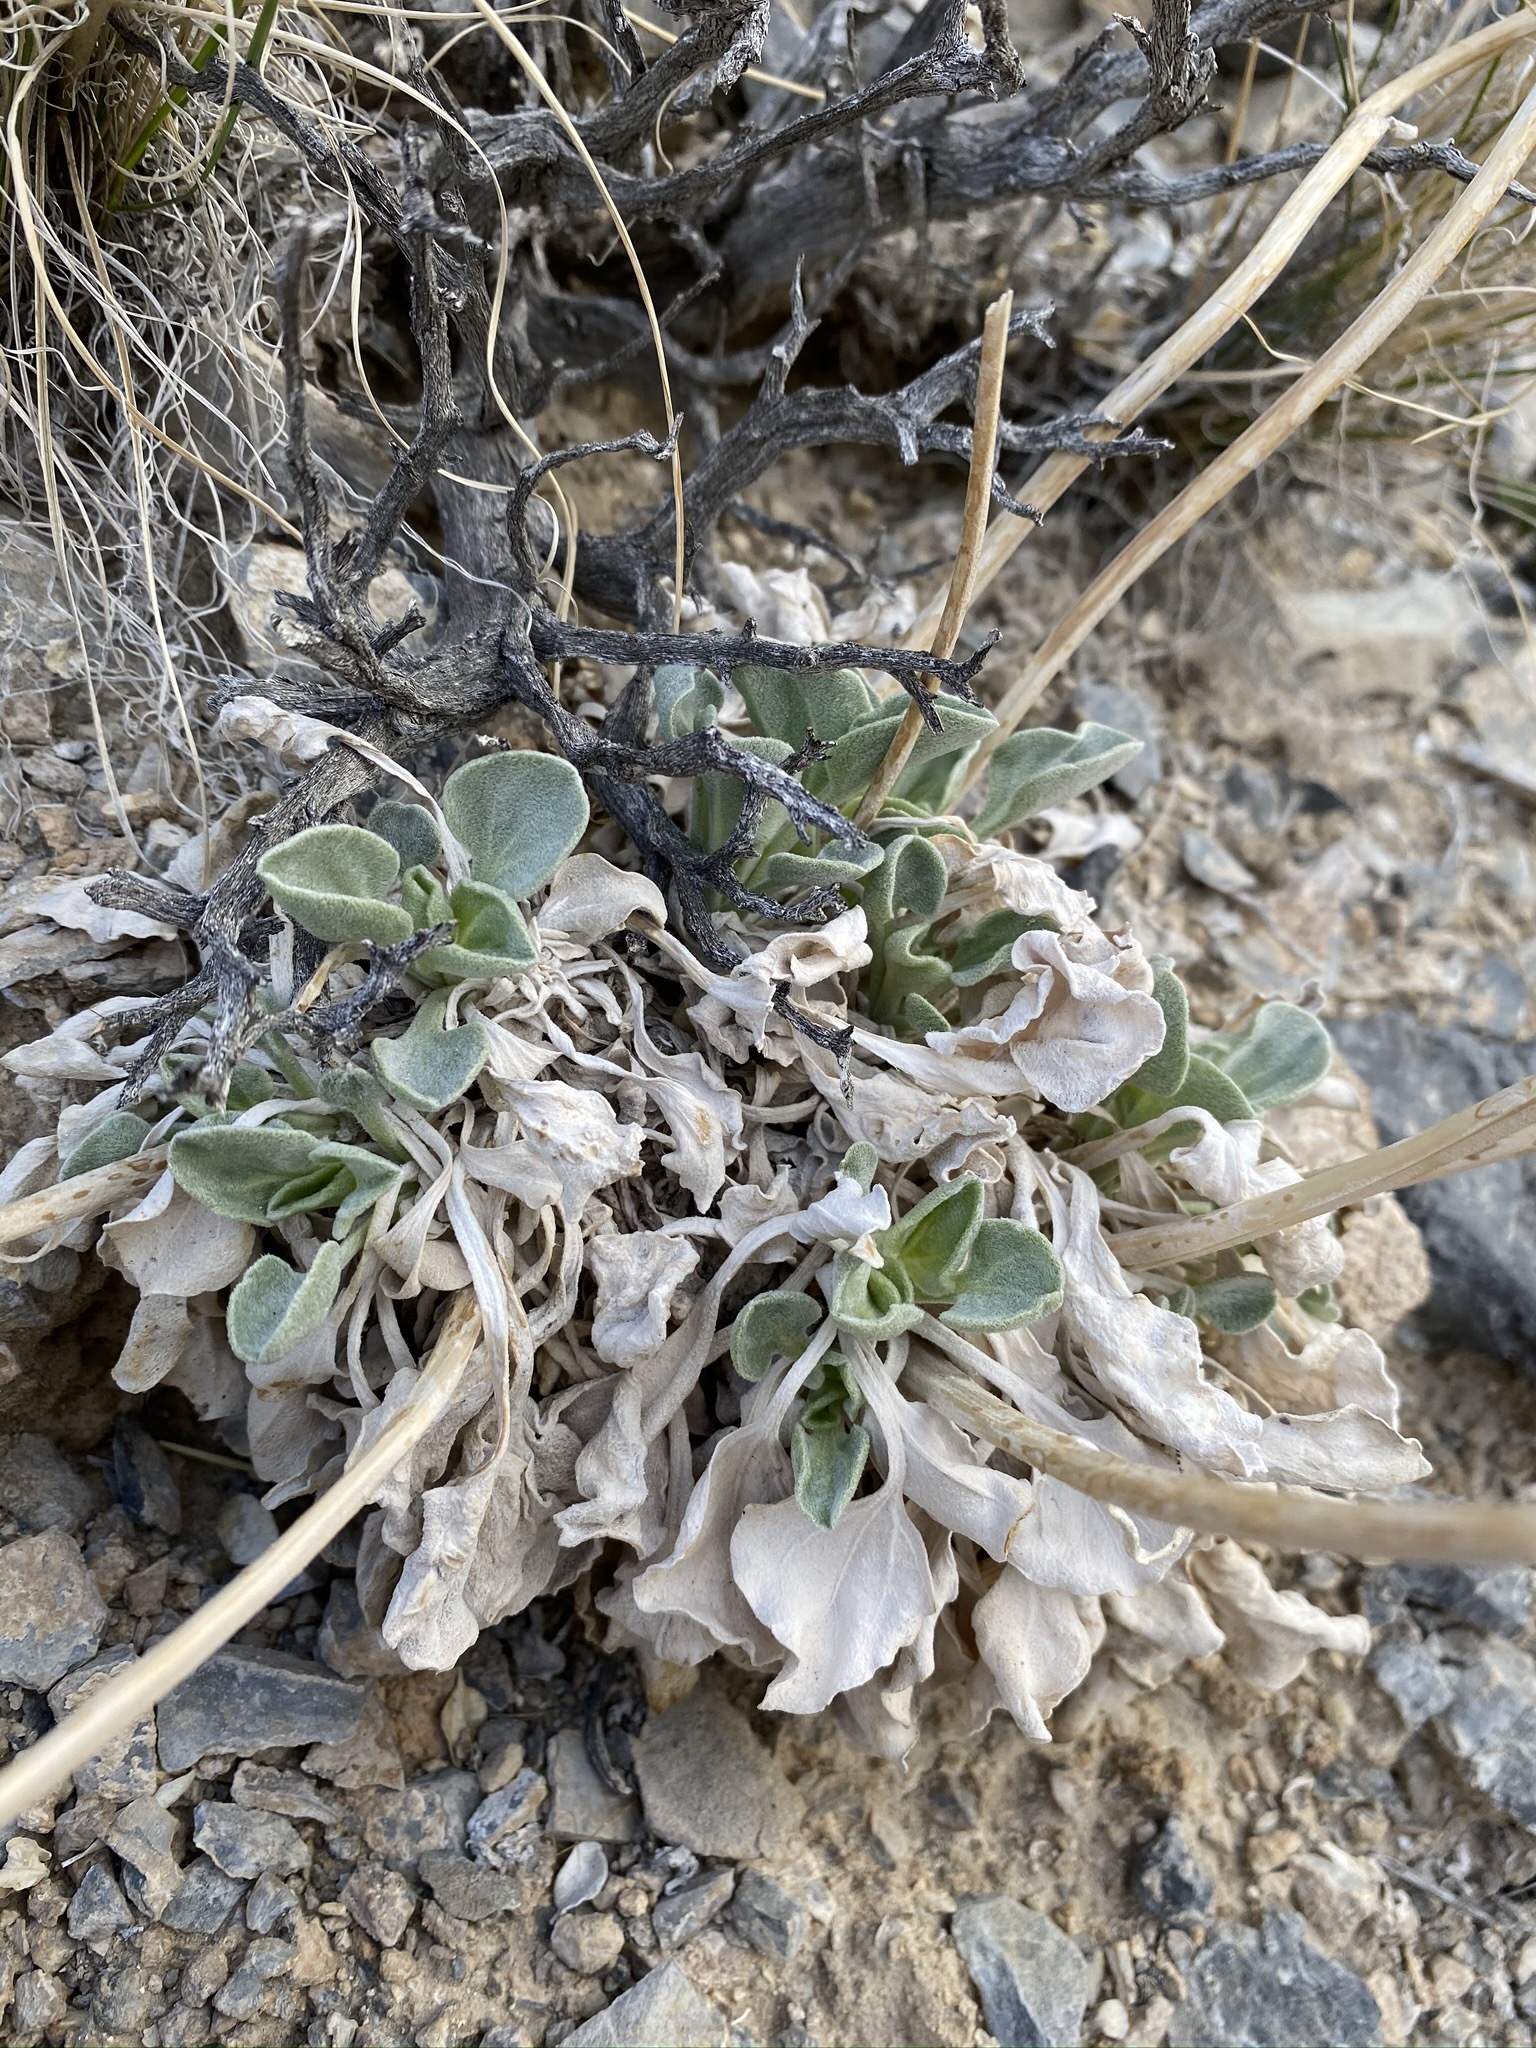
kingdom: Plantae
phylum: Tracheophyta
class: Magnoliopsida
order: Asterales
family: Asteraceae
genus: Enceliopsis
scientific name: Enceliopsis nudicaulis
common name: Naked-stem daisy
